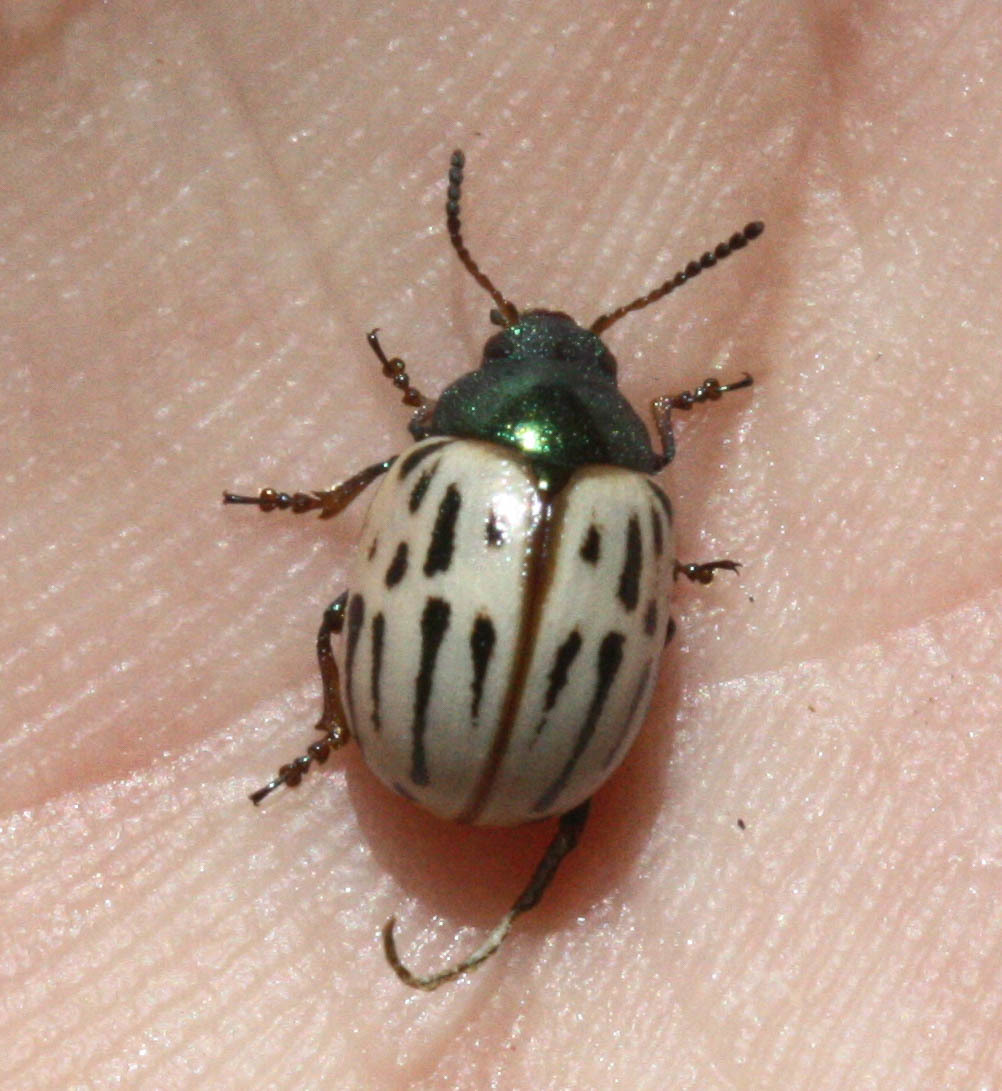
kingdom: Animalia
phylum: Arthropoda
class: Insecta
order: Coleoptera
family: Chrysomelidae
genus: Leptinotarsa
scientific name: Leptinotarsa lineolata
